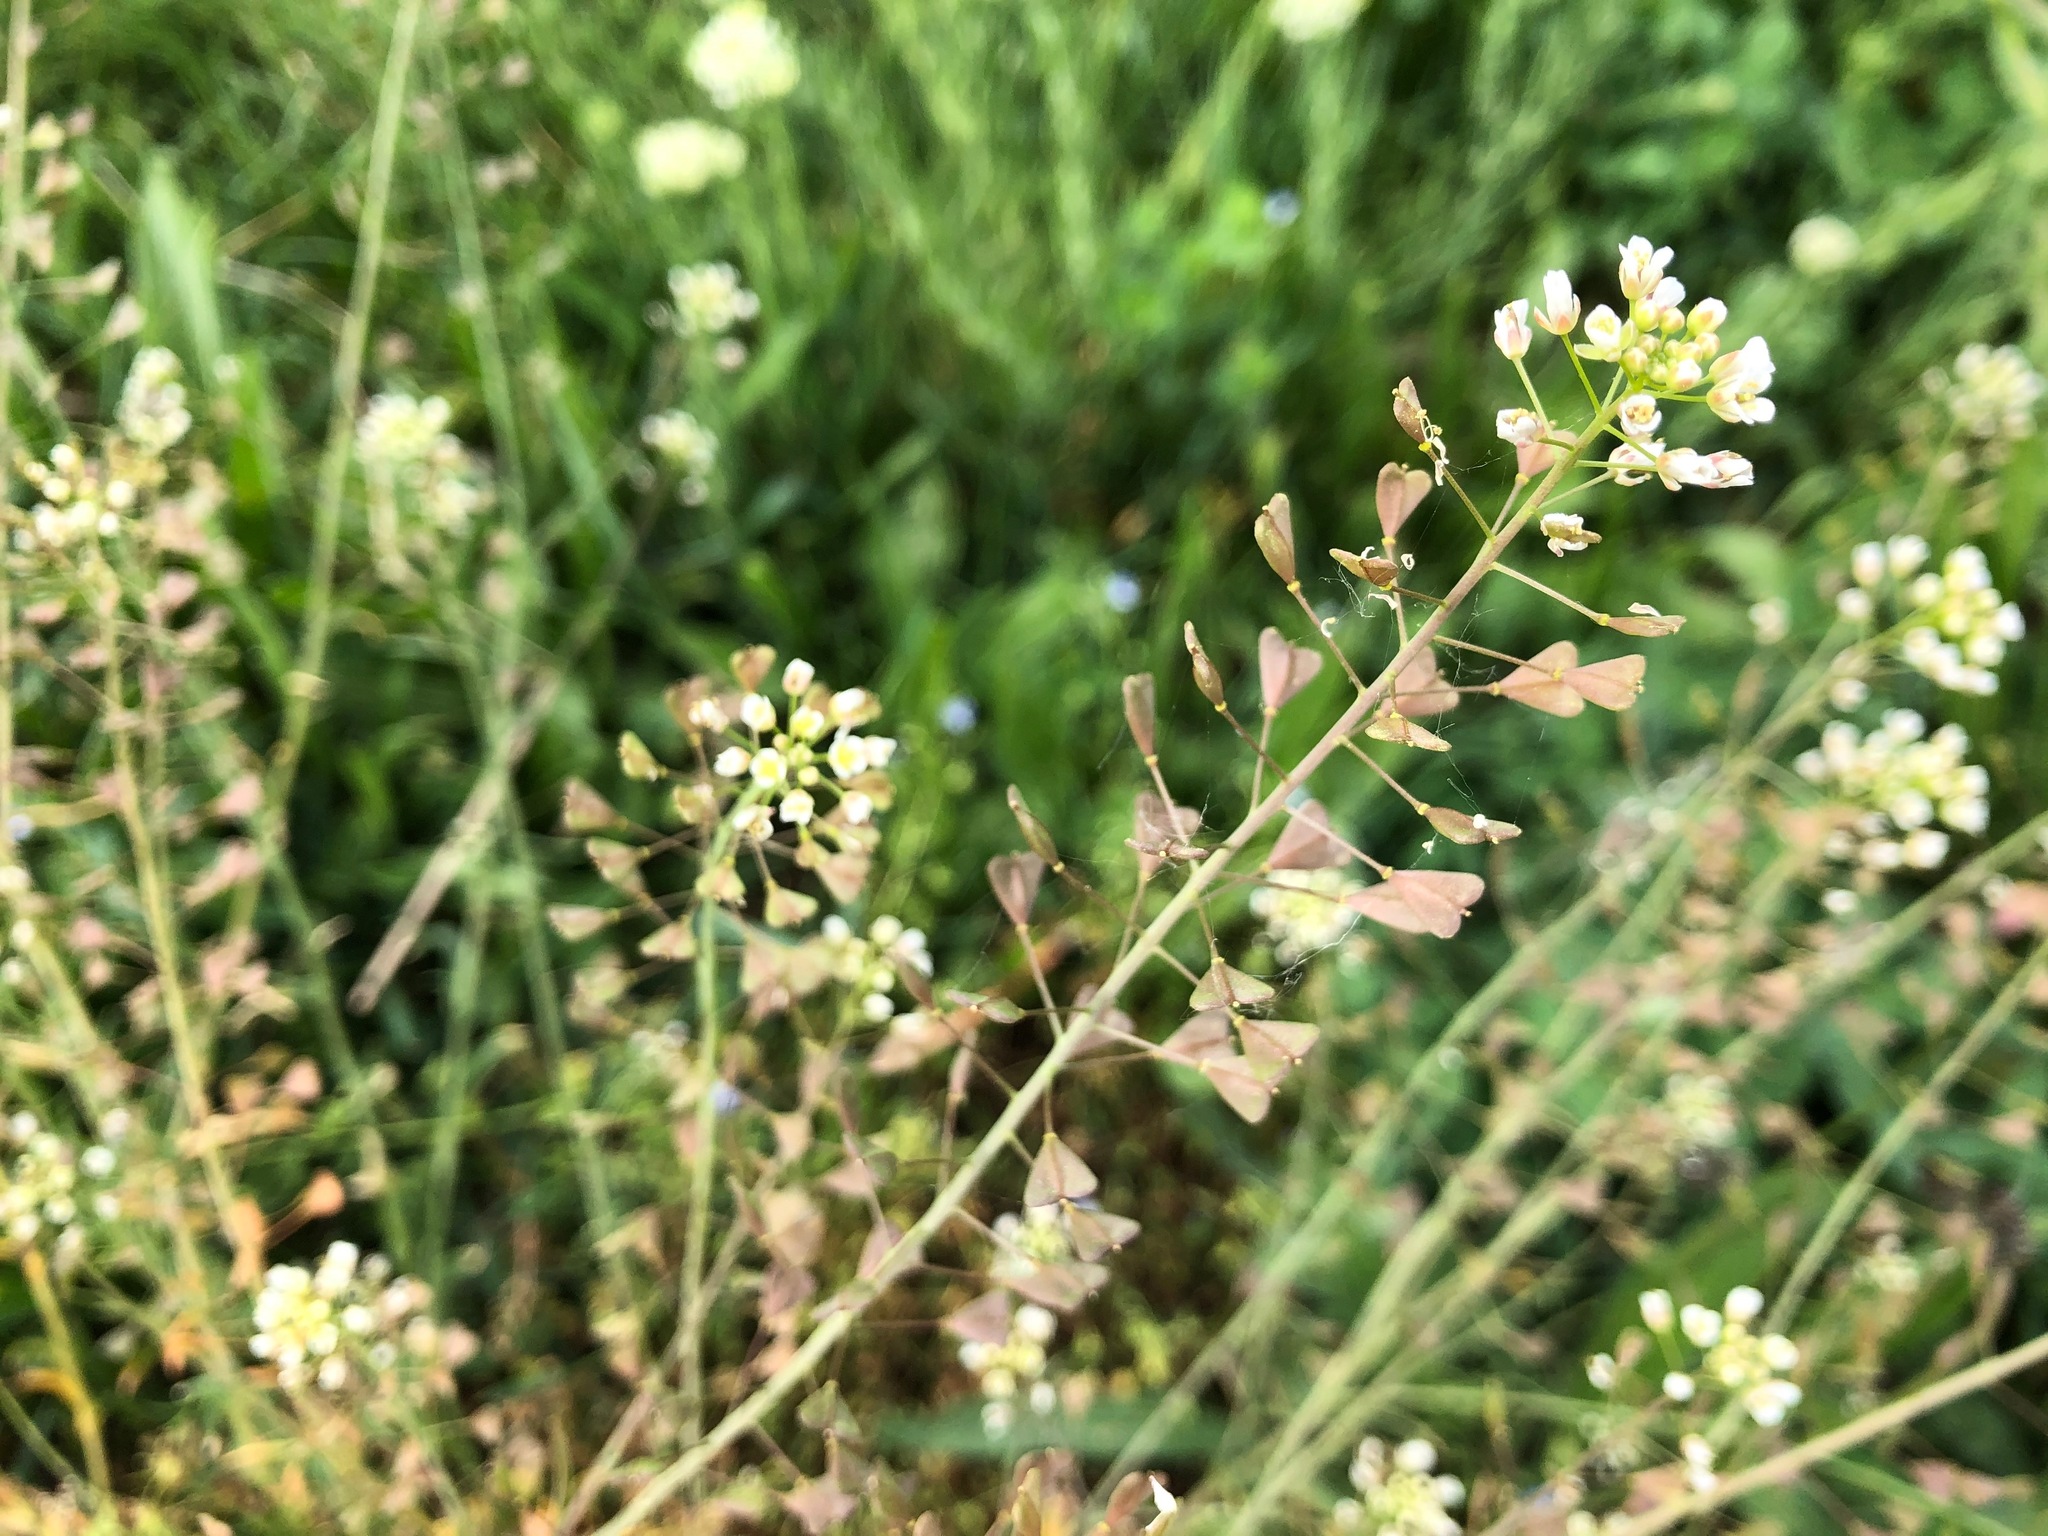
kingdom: Plantae
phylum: Tracheophyta
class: Magnoliopsida
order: Brassicales
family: Brassicaceae
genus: Capsella
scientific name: Capsella bursa-pastoris
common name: Shepherd's purse
